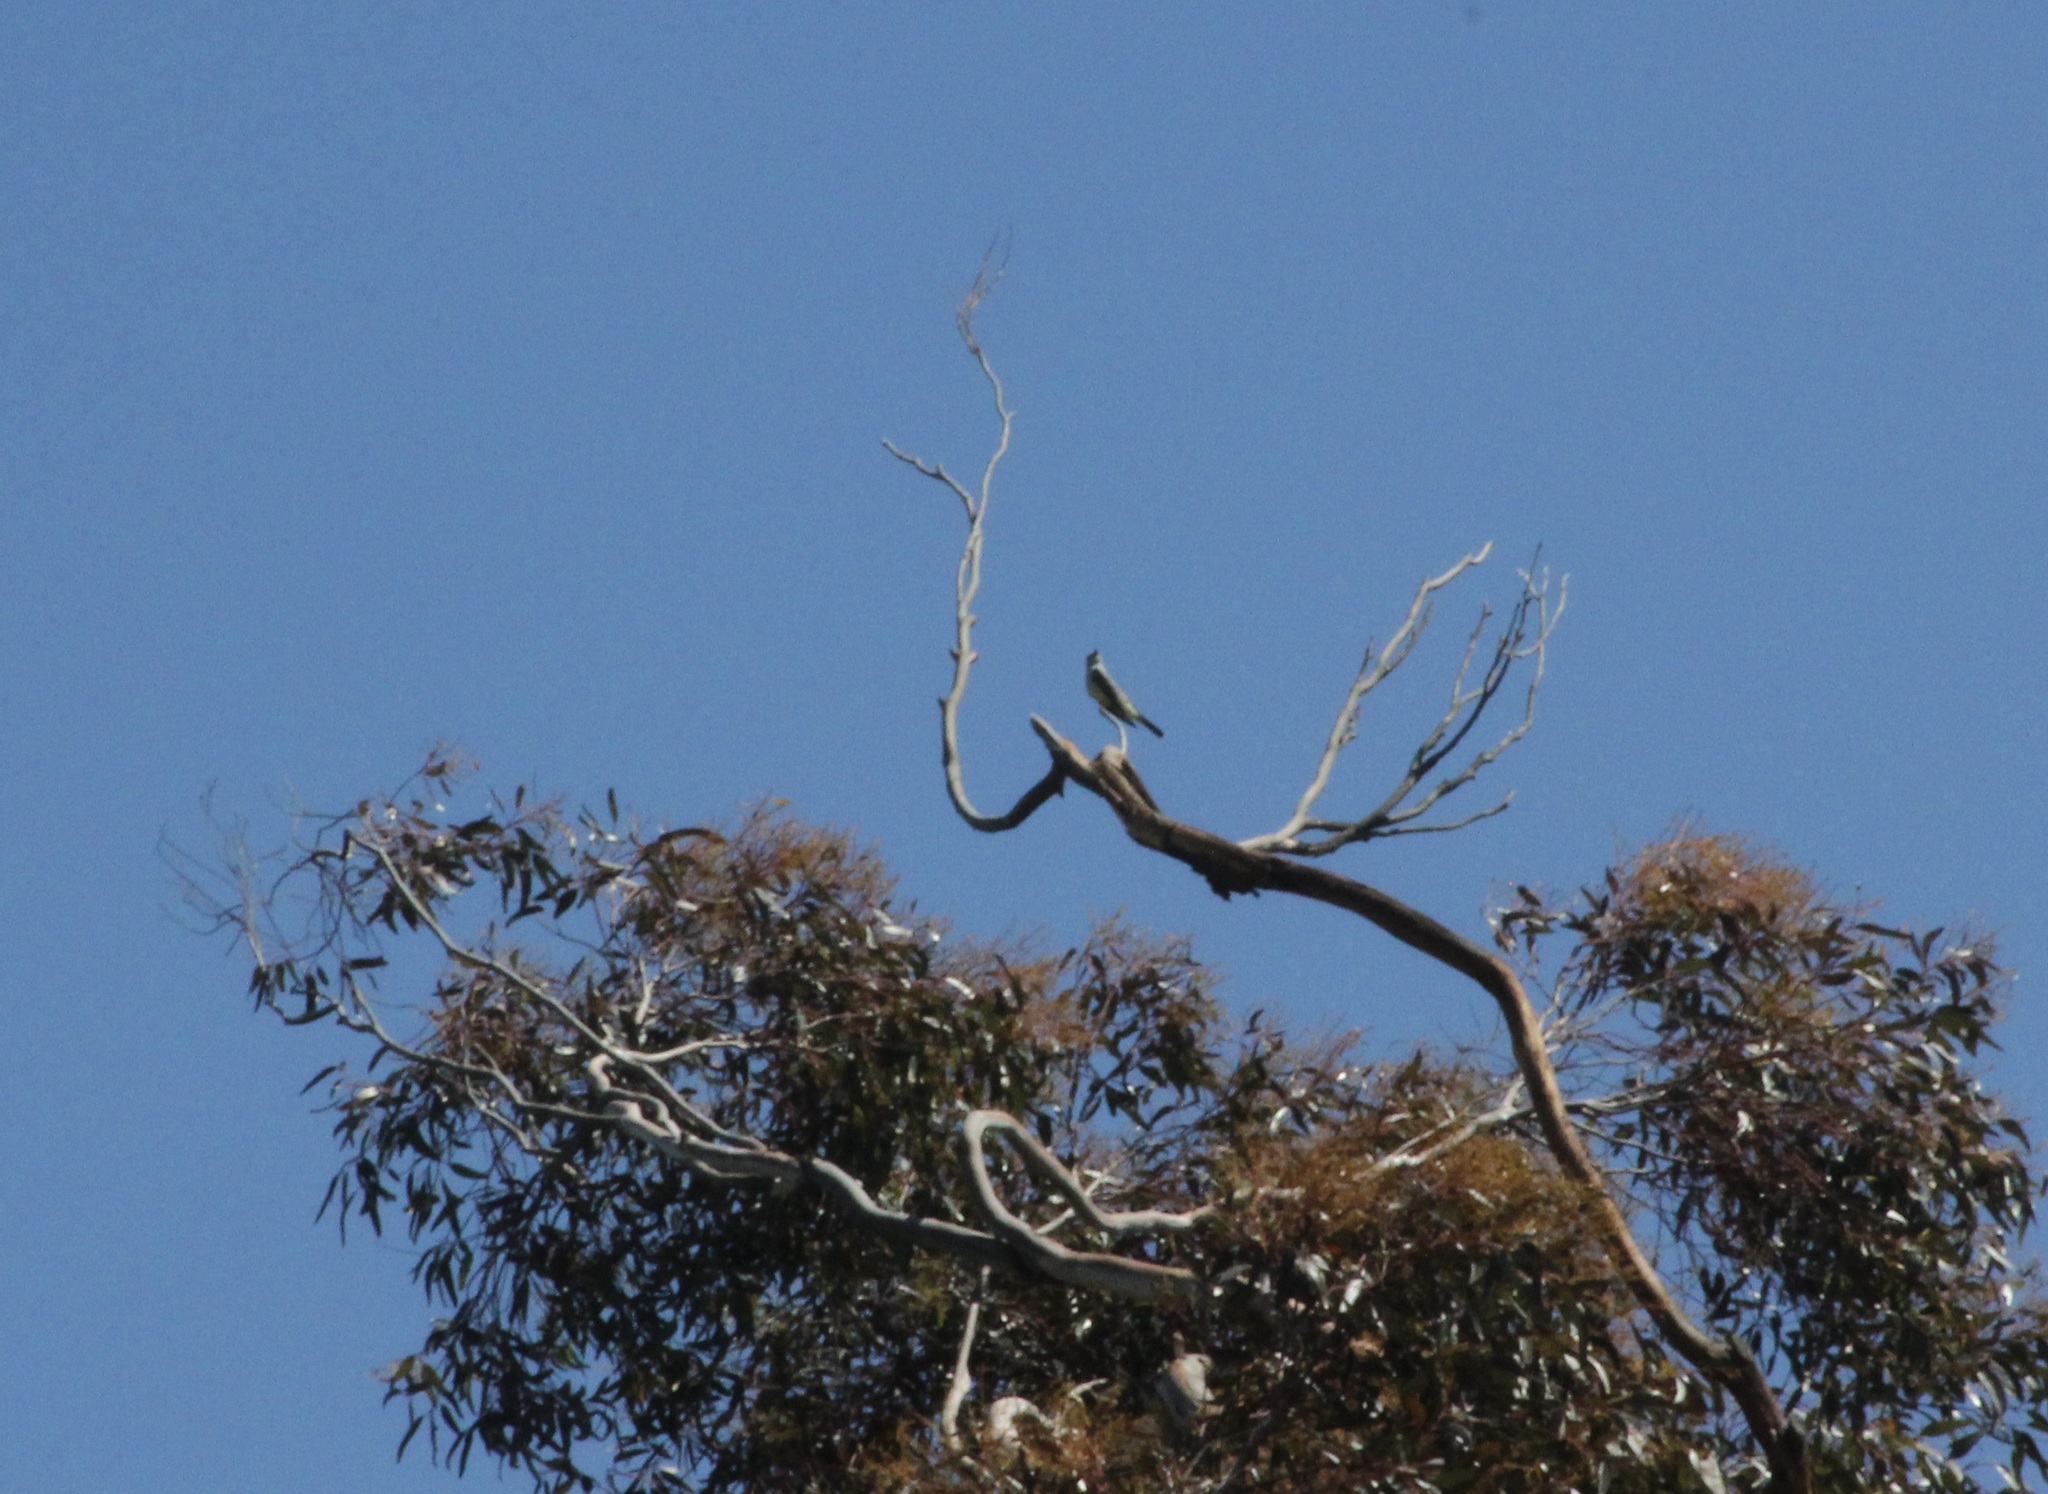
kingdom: Animalia
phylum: Chordata
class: Aves
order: Passeriformes
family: Tyrannidae
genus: Tyrannus
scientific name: Tyrannus
